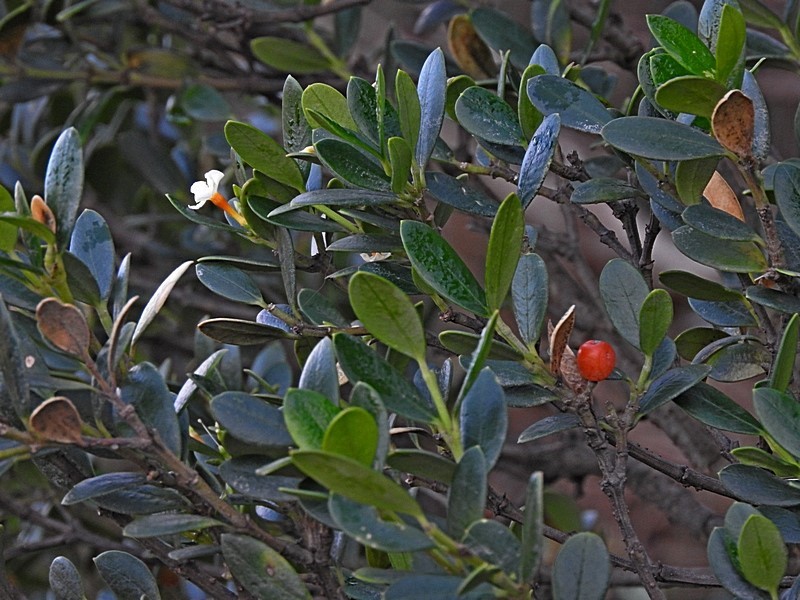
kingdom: Plantae
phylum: Tracheophyta
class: Magnoliopsida
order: Gentianales
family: Apocynaceae
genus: Alyxia
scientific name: Alyxia buxifolia
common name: Dysentery-bush
